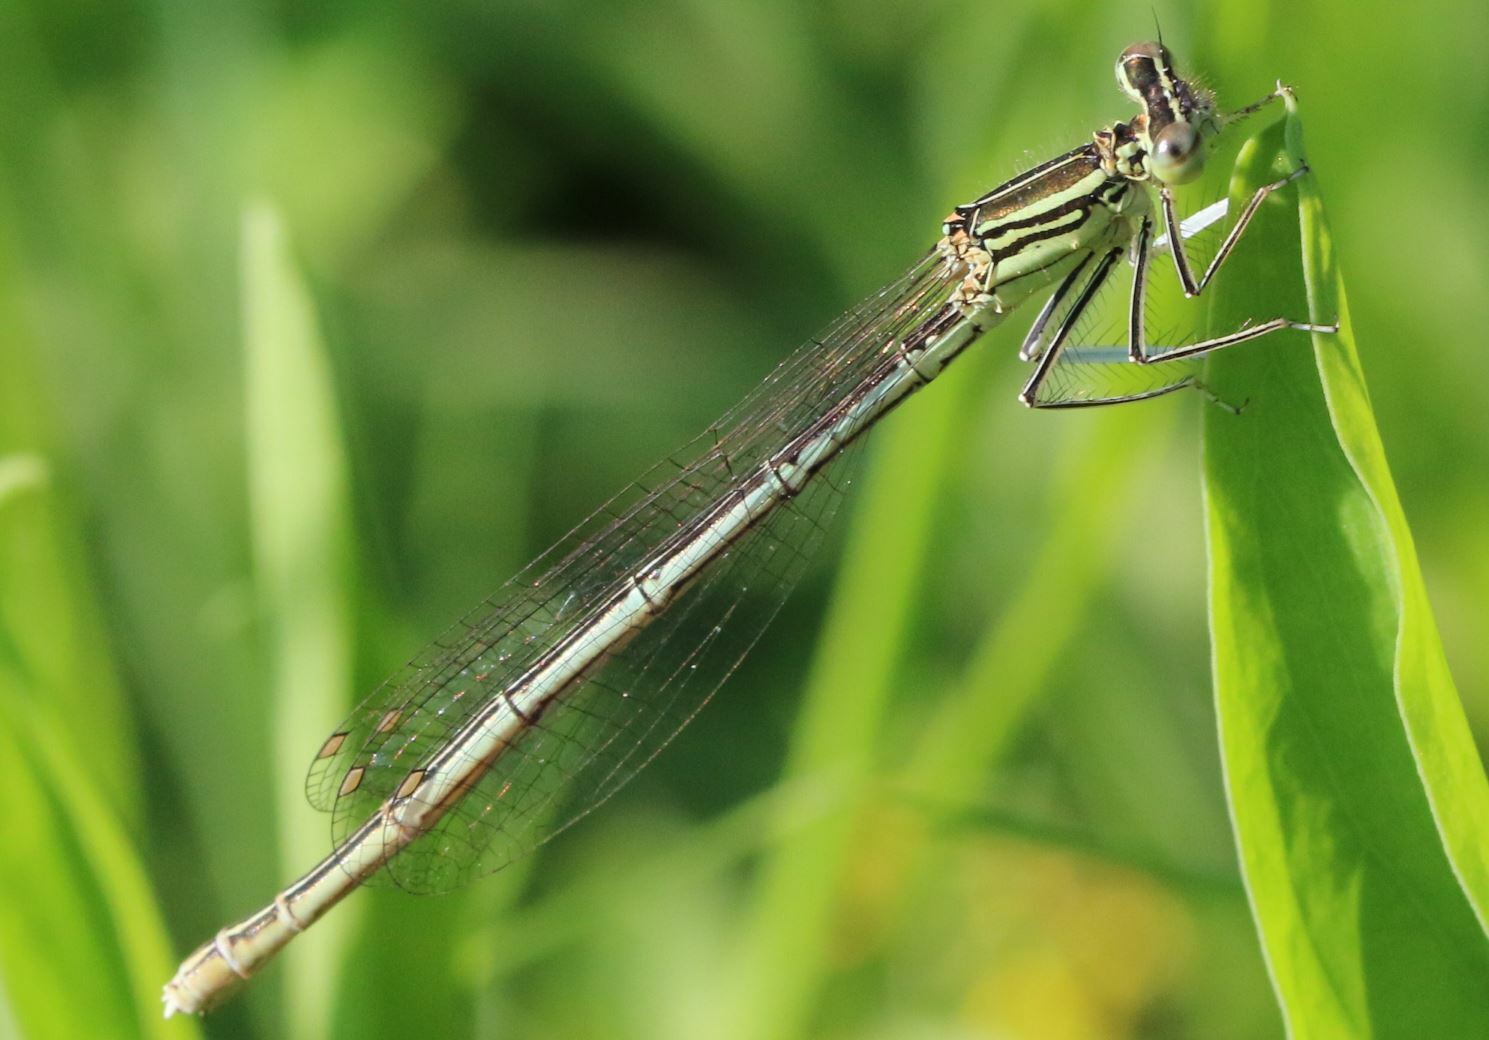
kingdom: Animalia
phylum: Arthropoda
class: Insecta
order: Odonata
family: Platycnemididae
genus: Platycnemis
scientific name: Platycnemis pennipes
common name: White-legged damselfly
